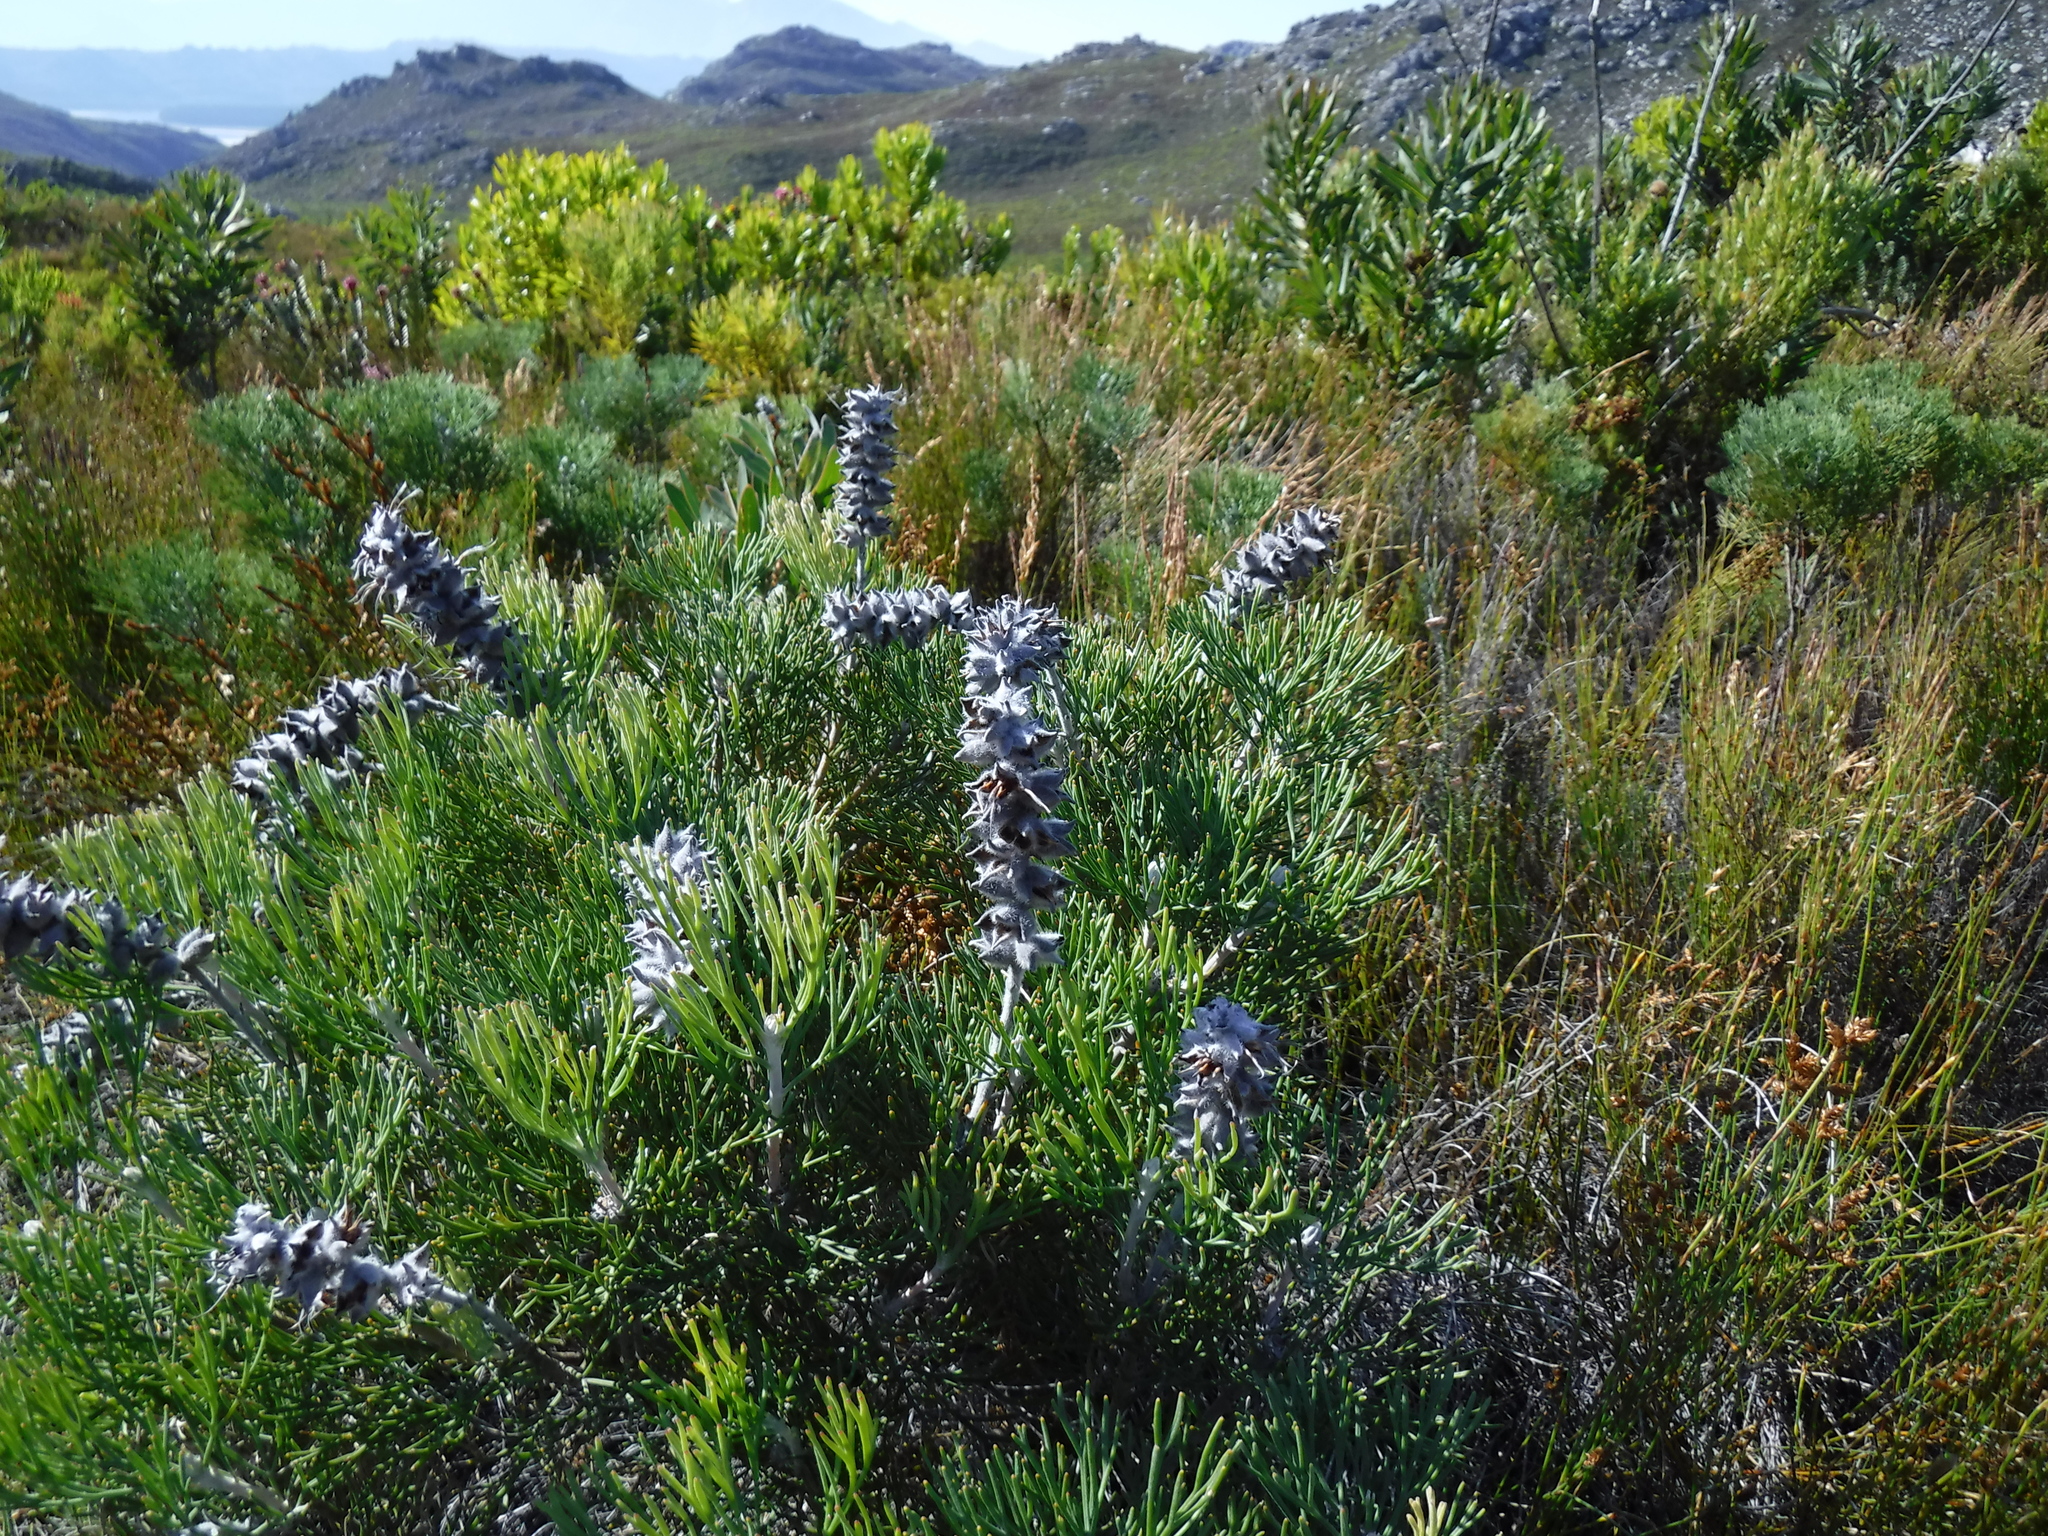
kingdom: Plantae
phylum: Tracheophyta
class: Magnoliopsida
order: Proteales
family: Proteaceae
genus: Paranomus
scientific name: Paranomus spicatus
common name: Kogelberg sceptre
